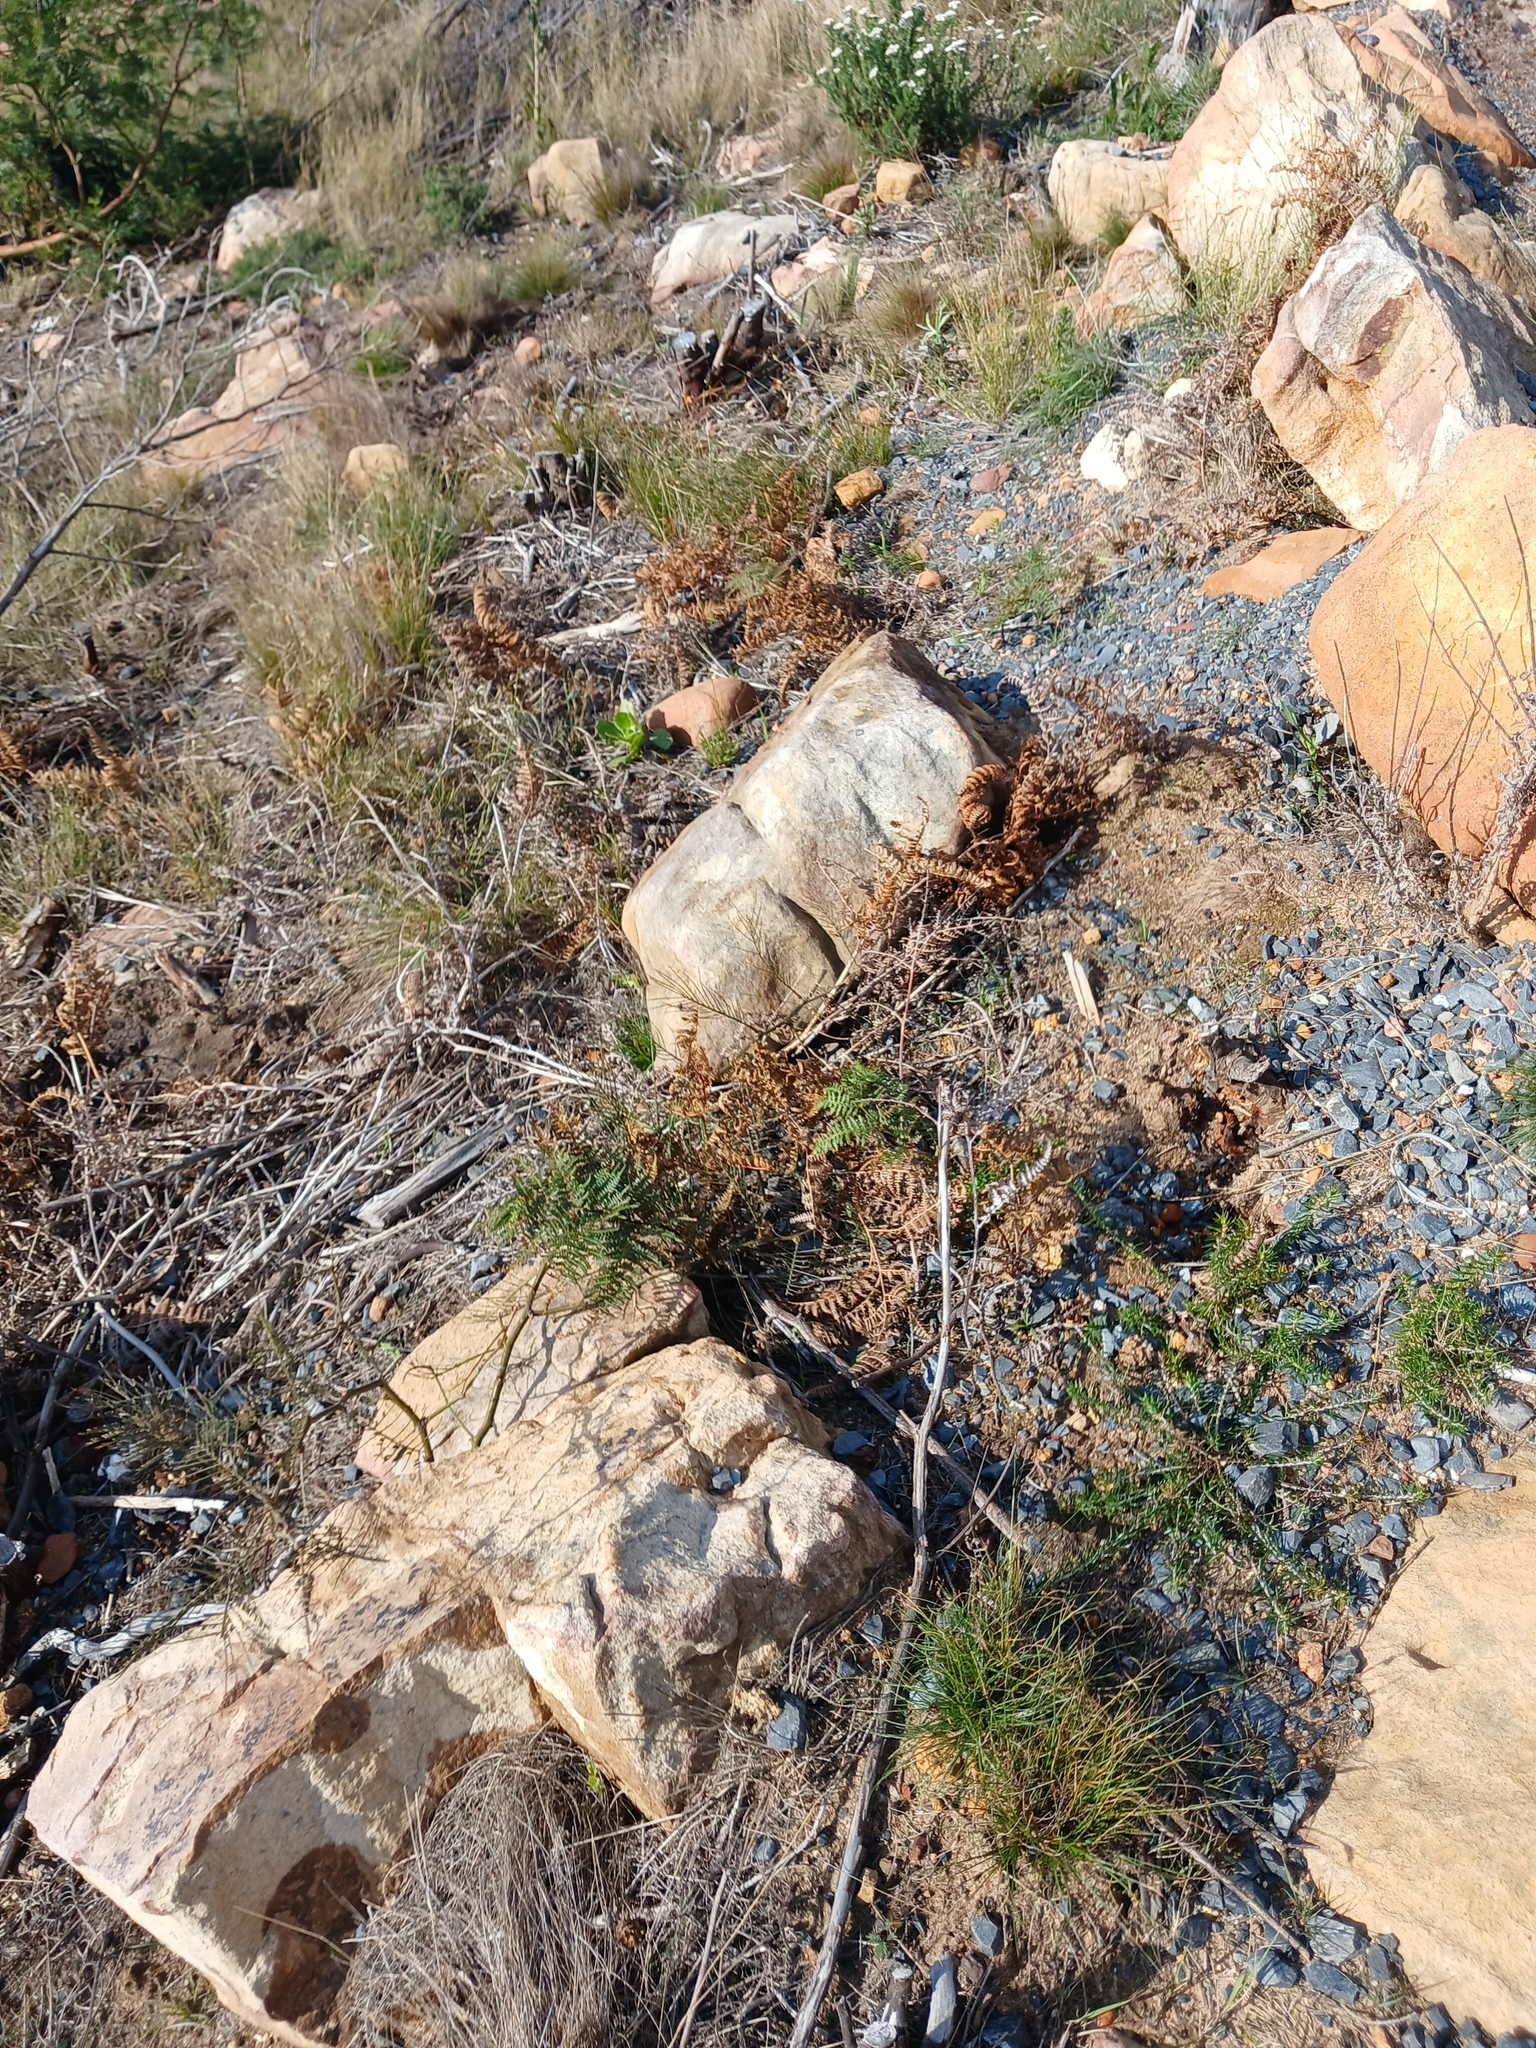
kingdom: Plantae
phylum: Tracheophyta
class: Polypodiopsida
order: Polypodiales
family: Dennstaedtiaceae
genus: Pteridium
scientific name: Pteridium aquilinum
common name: Bracken
